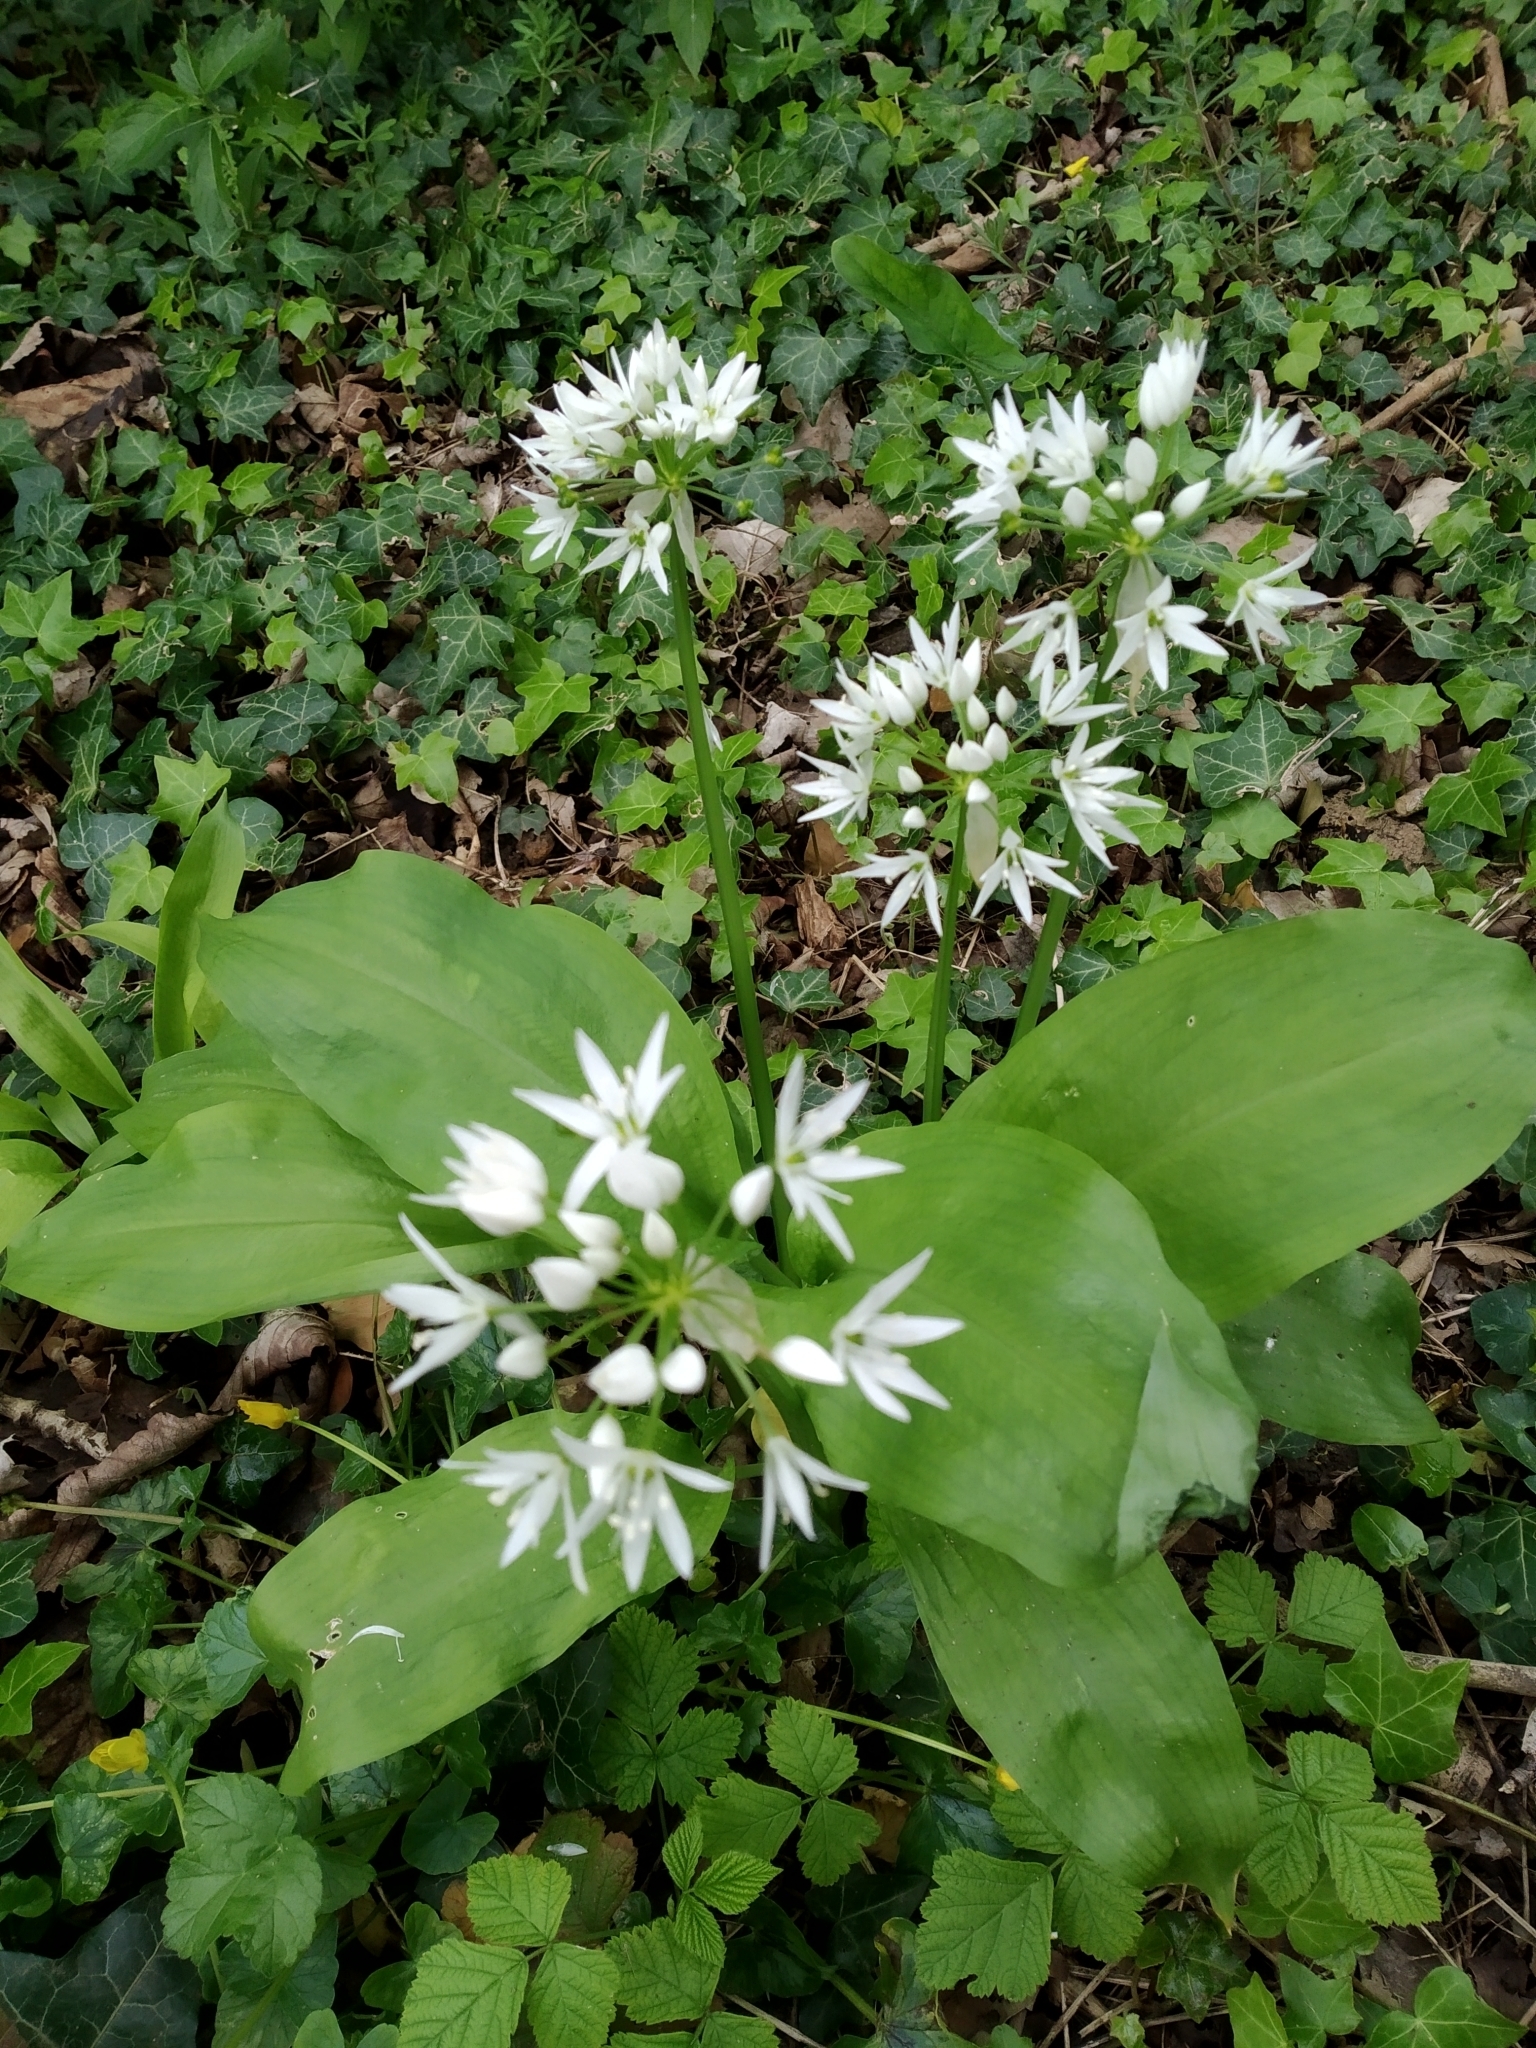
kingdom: Plantae
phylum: Tracheophyta
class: Liliopsida
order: Asparagales
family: Amaryllidaceae
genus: Allium
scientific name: Allium ursinum
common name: Ramsons
